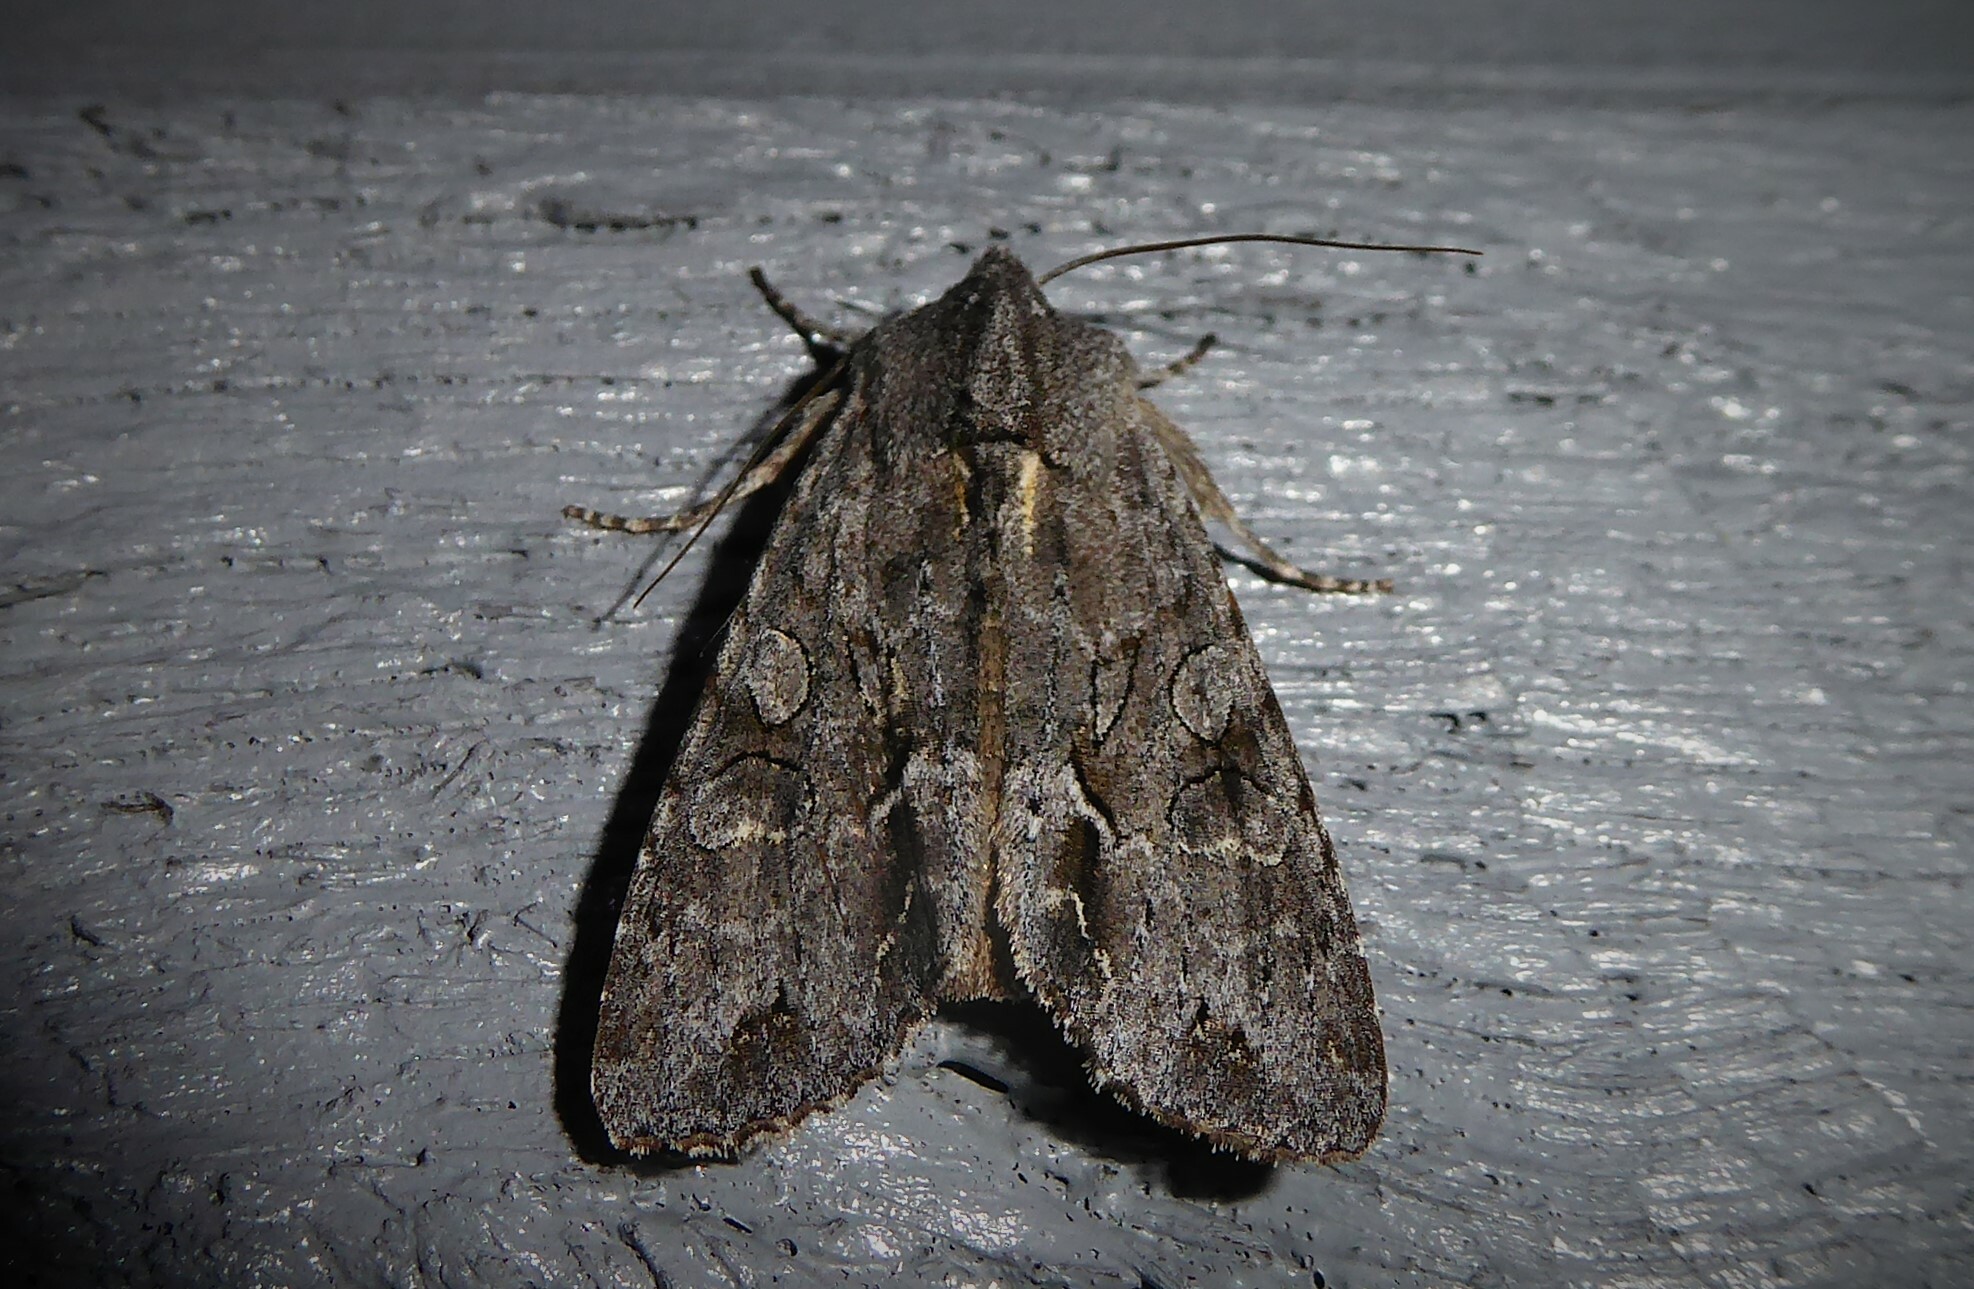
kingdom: Animalia
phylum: Arthropoda
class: Insecta
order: Lepidoptera
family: Noctuidae
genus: Ichneutica
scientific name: Ichneutica
